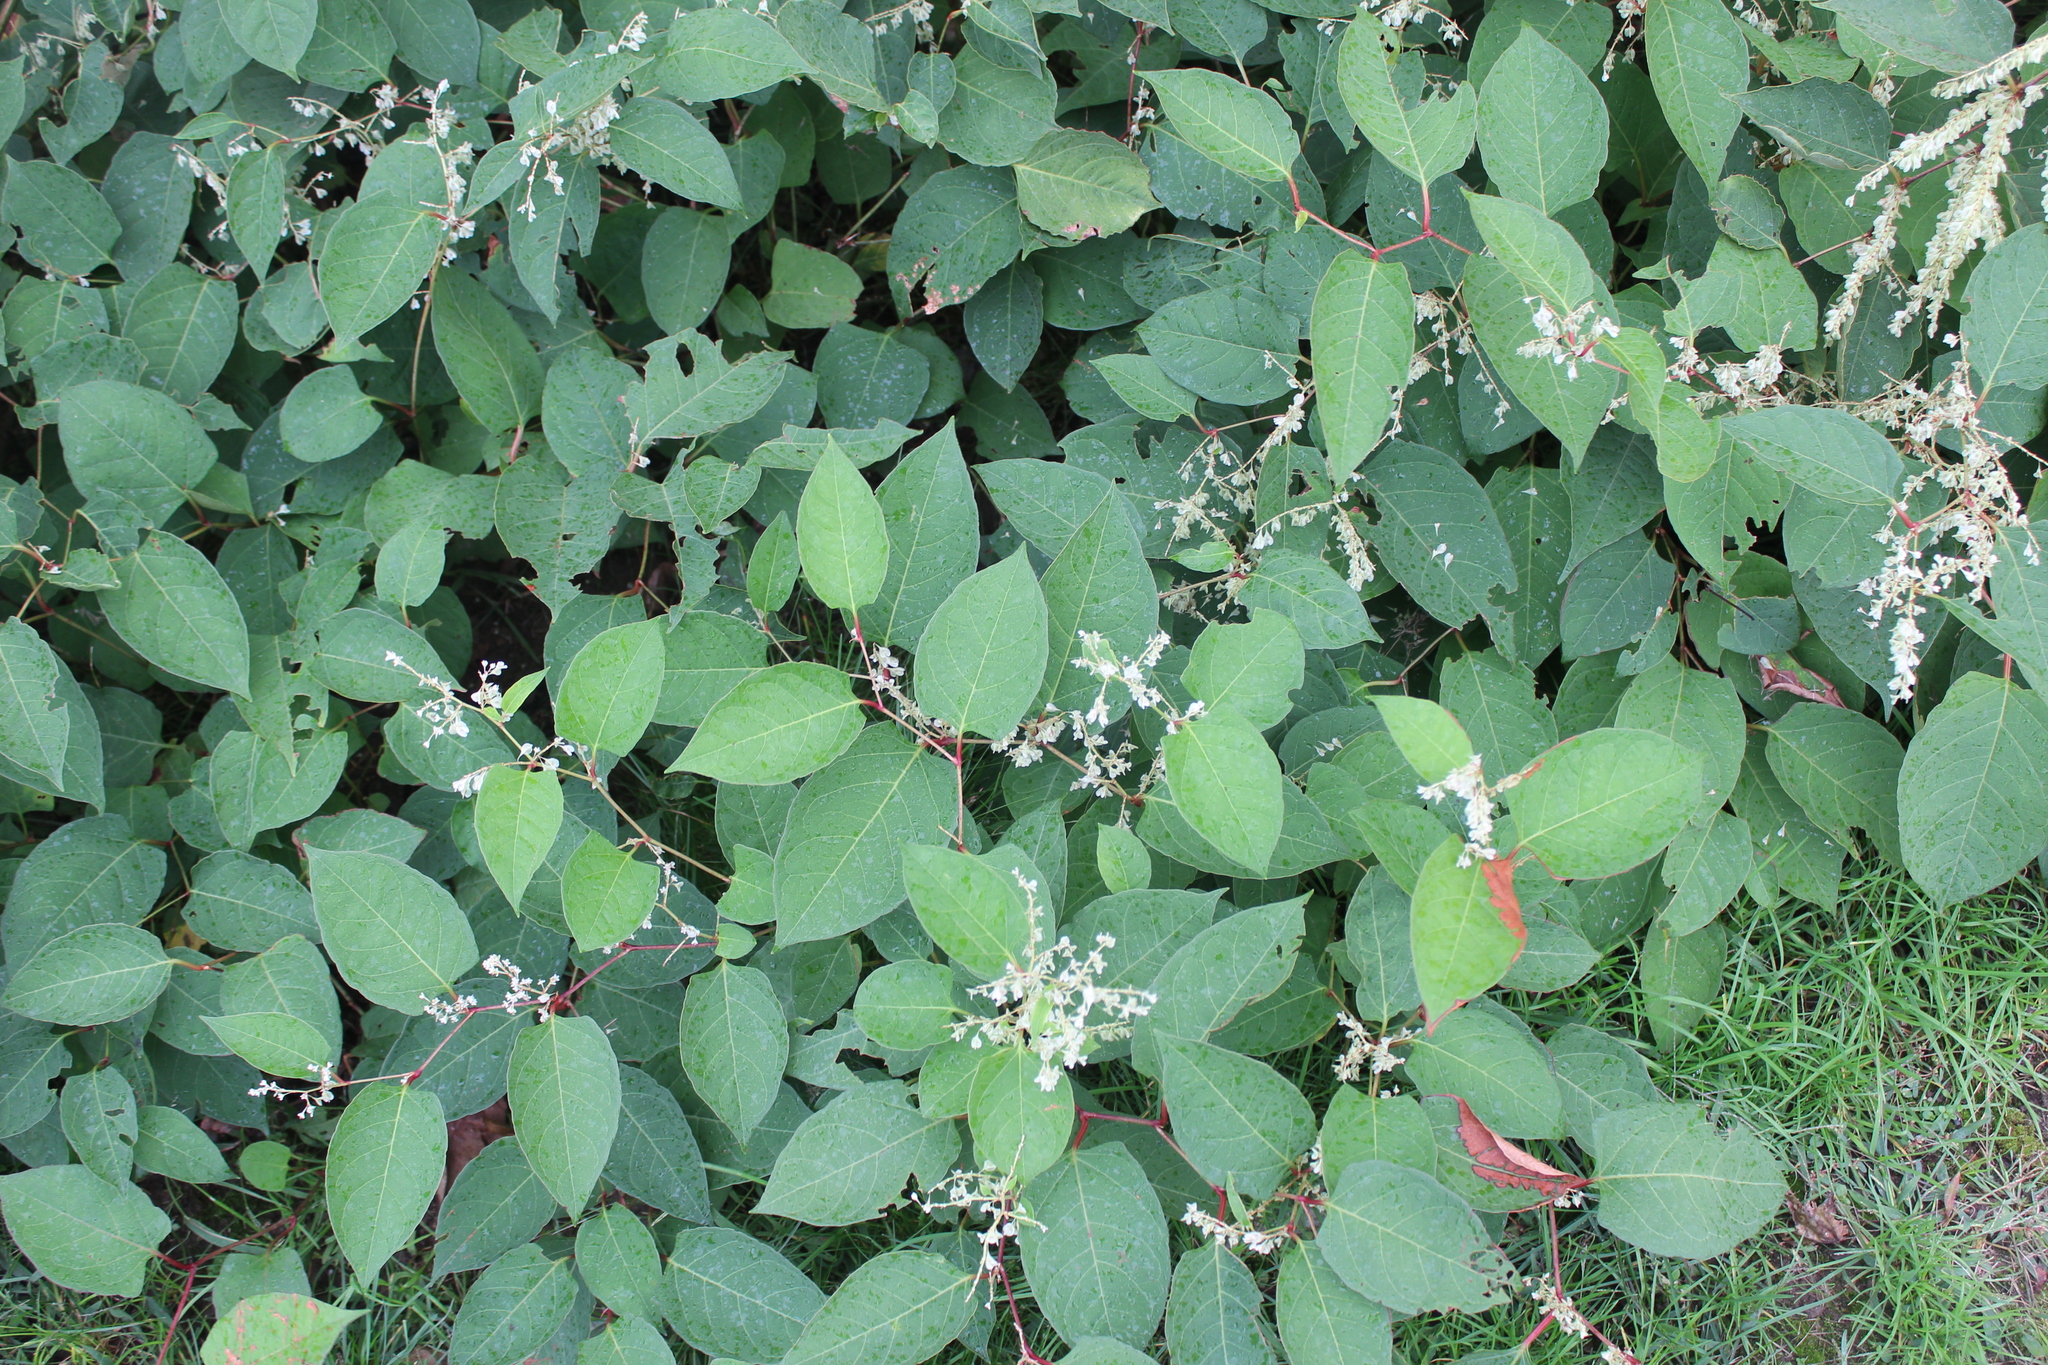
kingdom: Plantae
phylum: Tracheophyta
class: Magnoliopsida
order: Caryophyllales
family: Polygonaceae
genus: Reynoutria
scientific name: Reynoutria japonica
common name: Japanese knotweed
